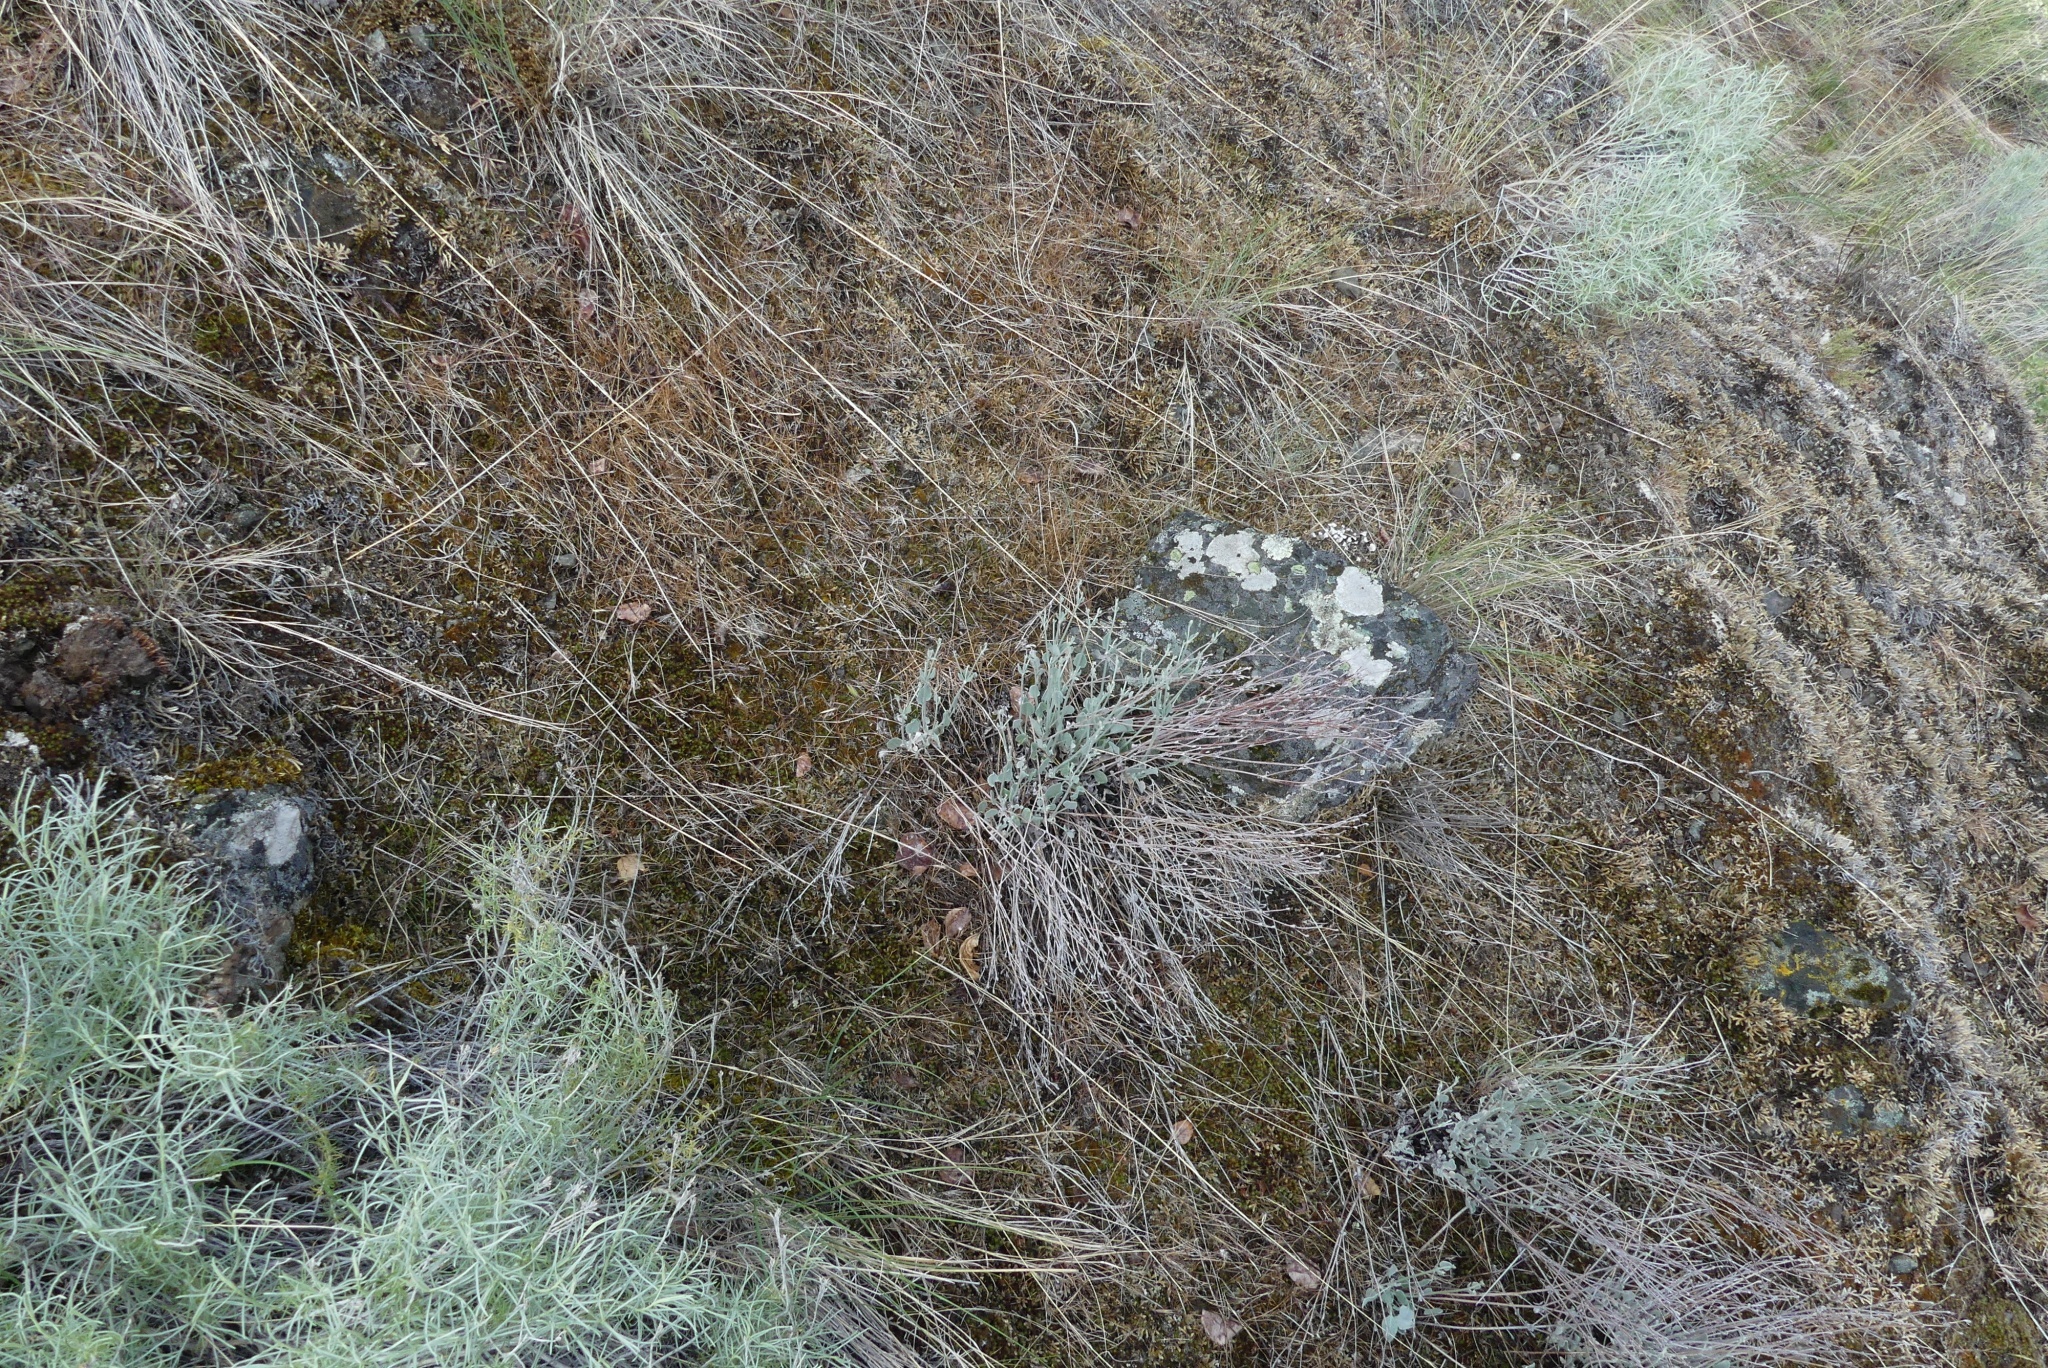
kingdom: Plantae
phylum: Tracheophyta
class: Magnoliopsida
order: Caryophyllales
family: Polygonaceae
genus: Eriogonum
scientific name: Eriogonum niveum
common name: Snow wild buckwheat
